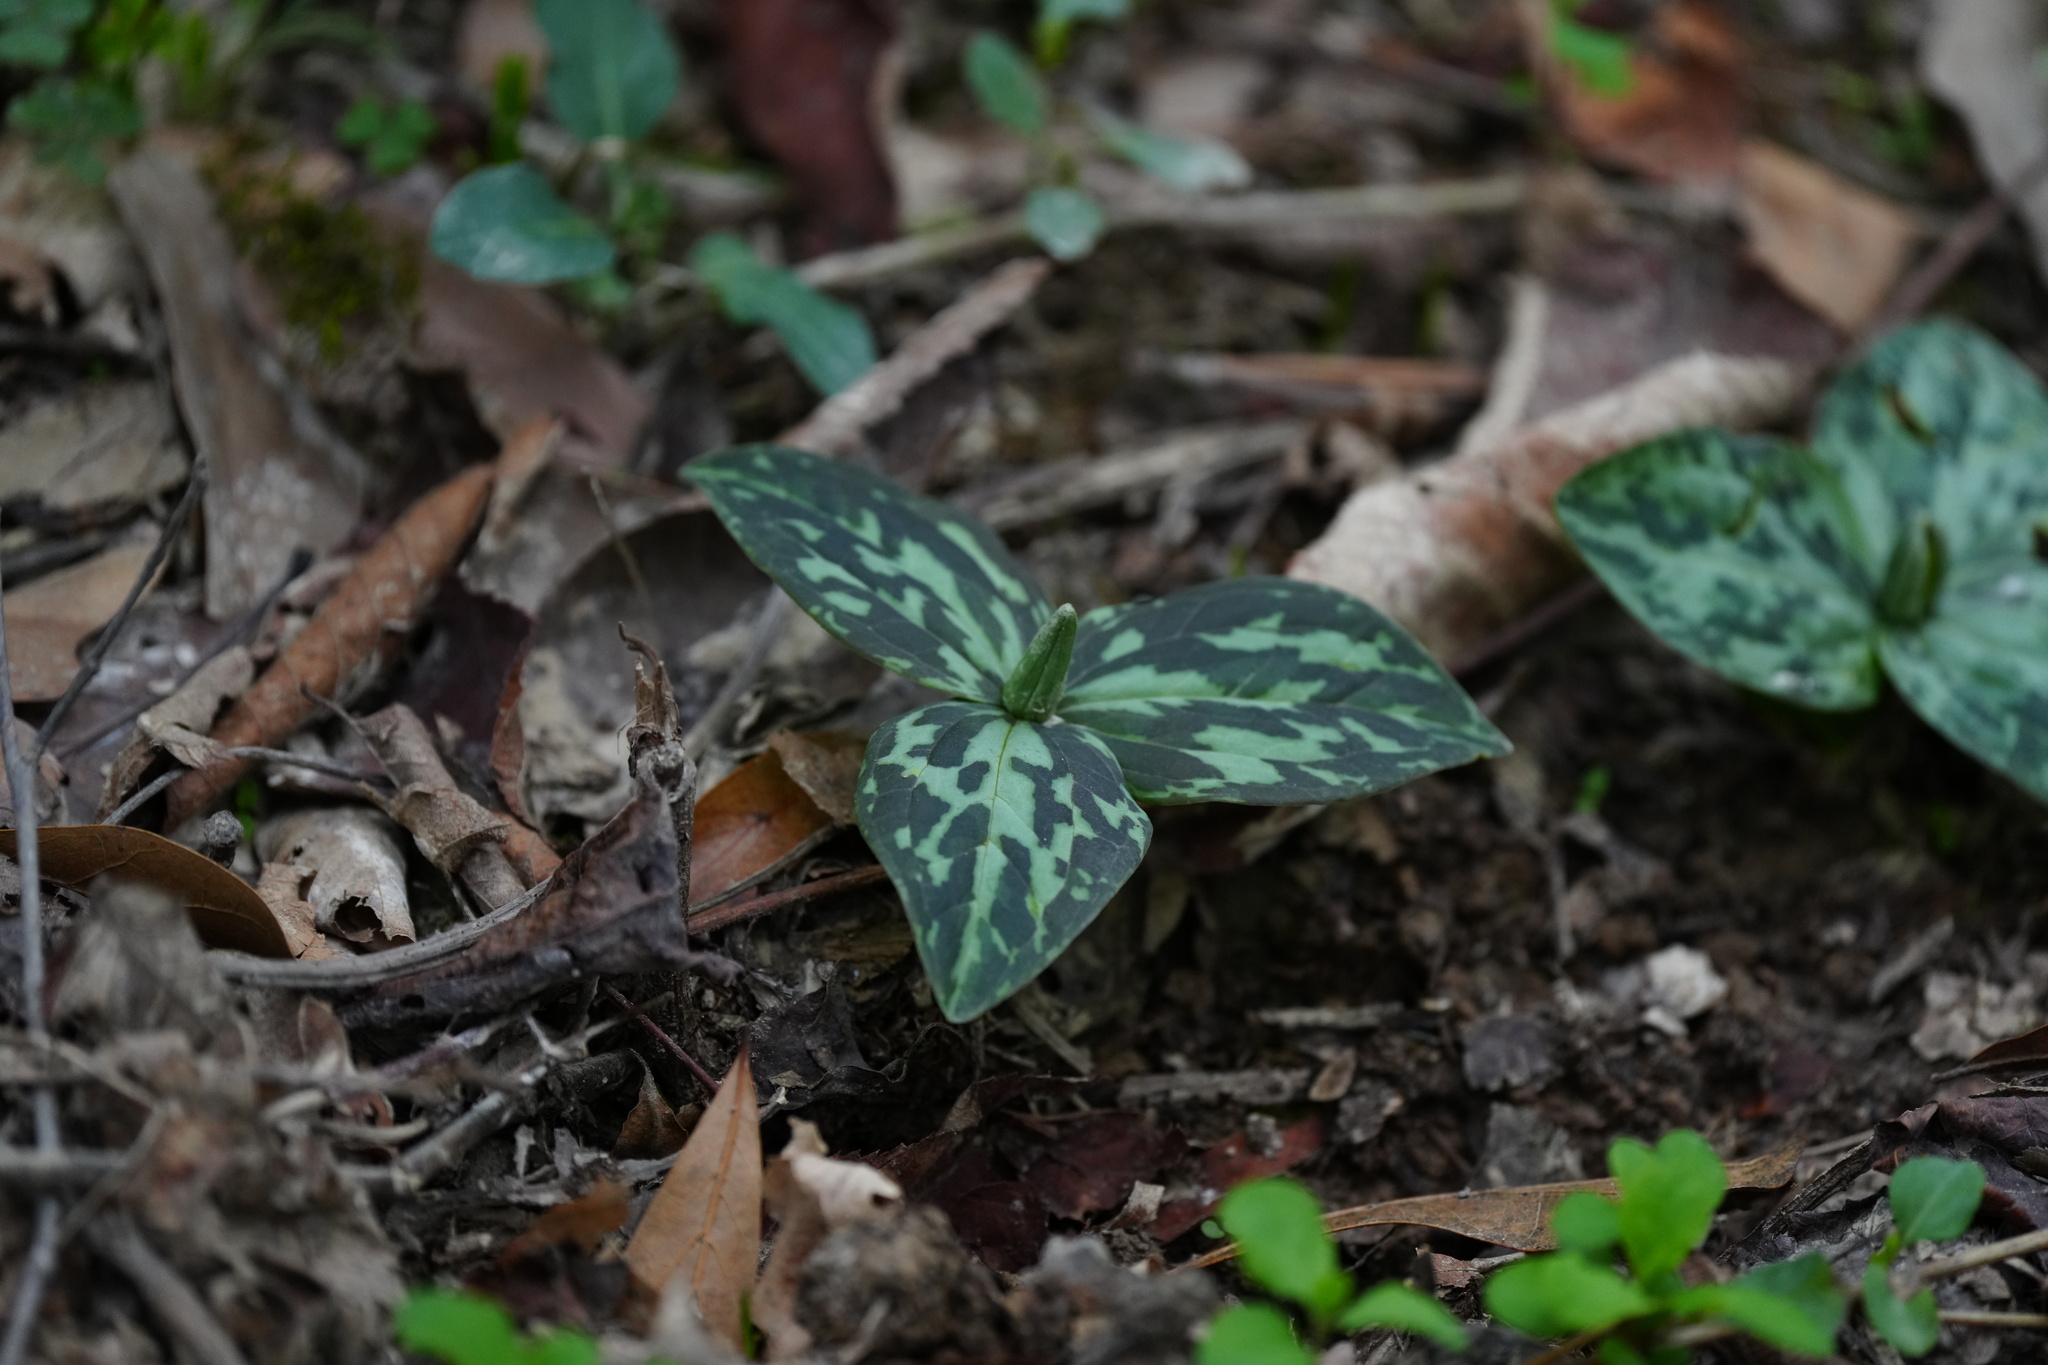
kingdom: Plantae
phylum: Tracheophyta
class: Liliopsida
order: Liliales
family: Melanthiaceae
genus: Trillium
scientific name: Trillium foetidissimum
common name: Mississippi river trillium
